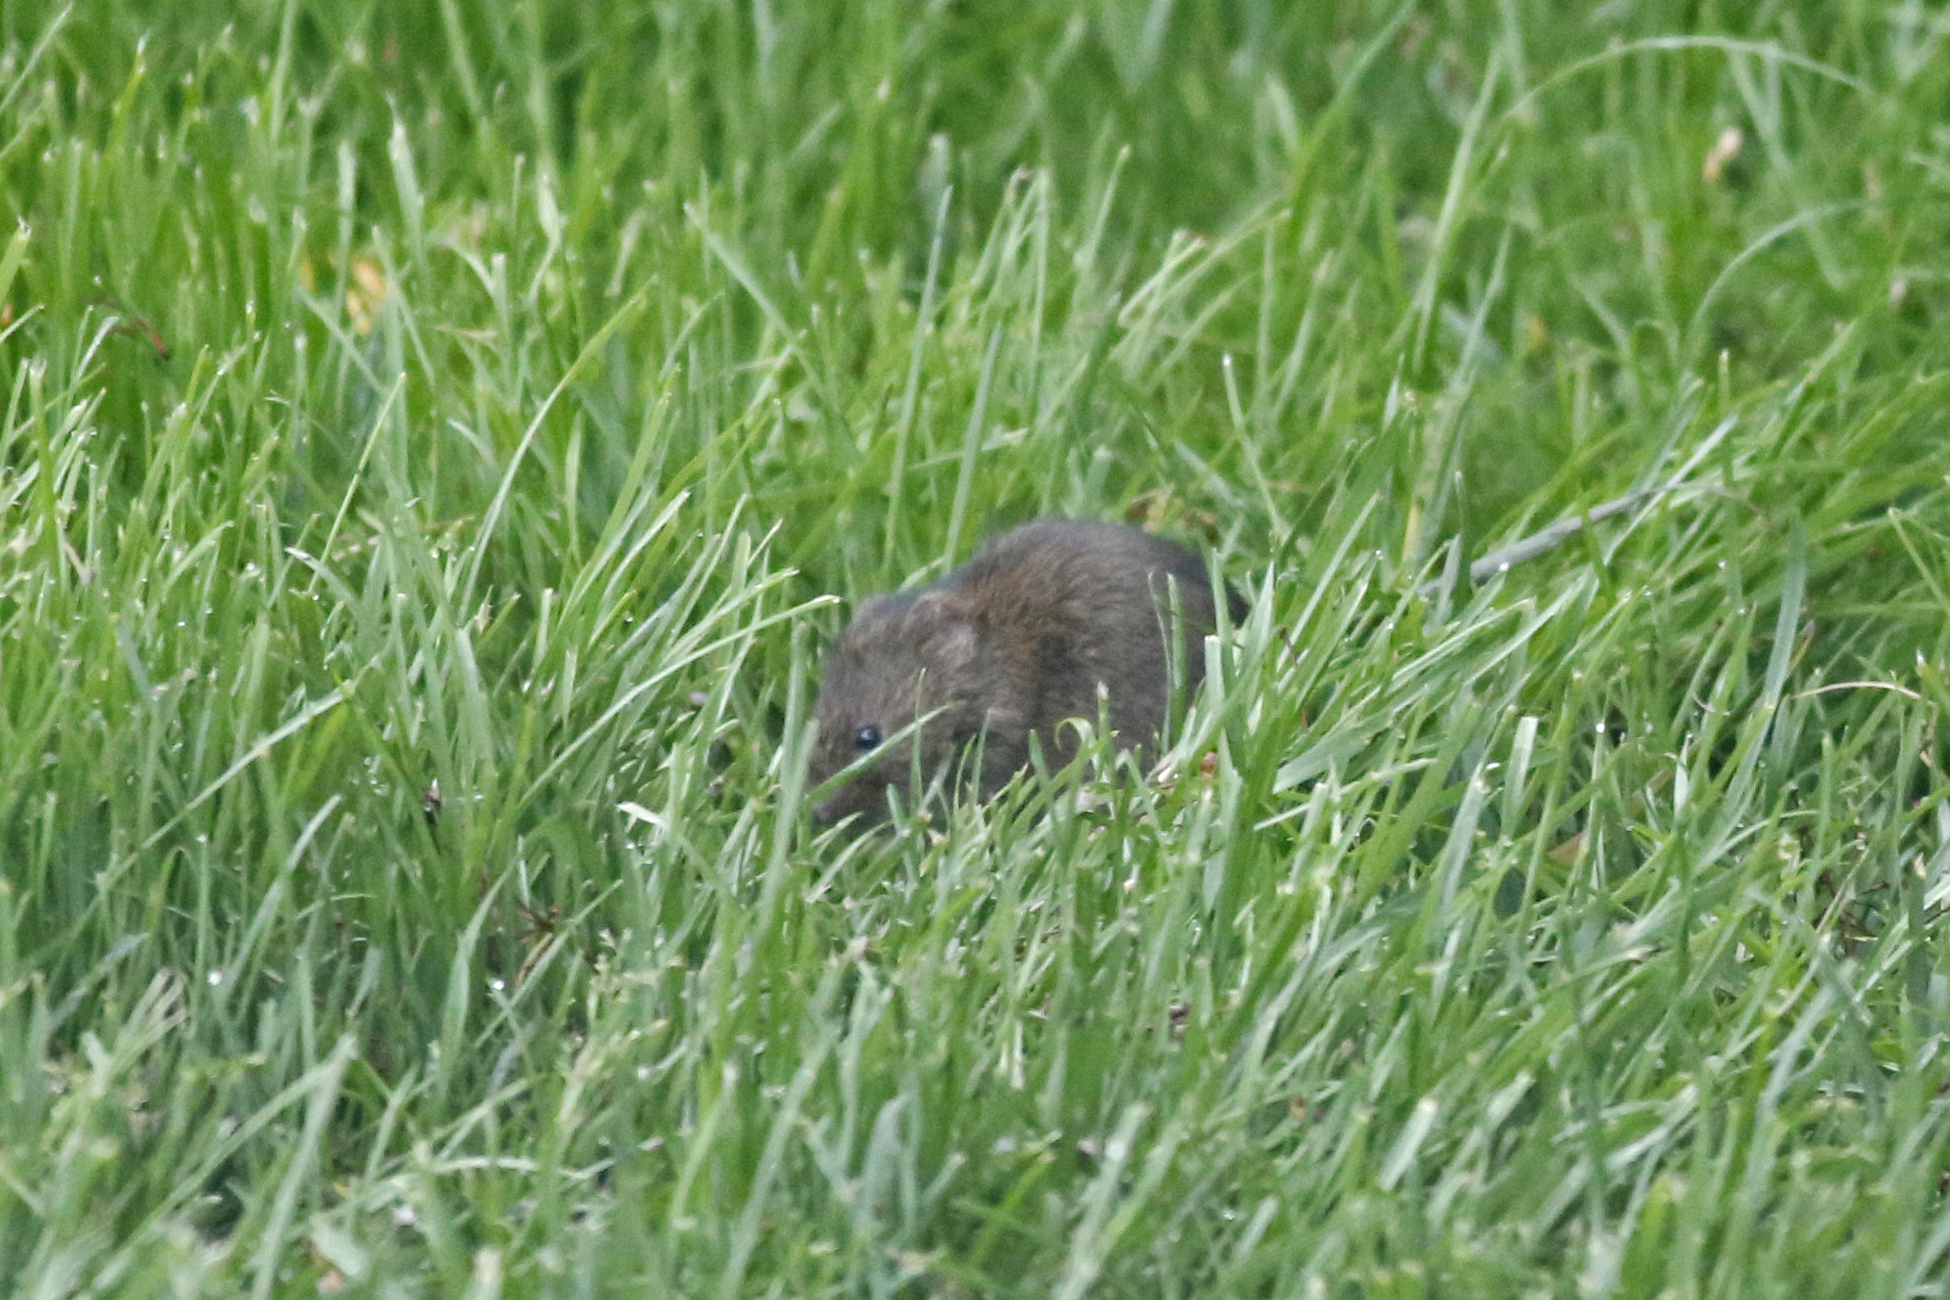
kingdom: Animalia
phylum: Chordata
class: Mammalia
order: Rodentia
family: Cricetidae
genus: Microtus
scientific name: Microtus pennsylvanicus
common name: Meadow vole
